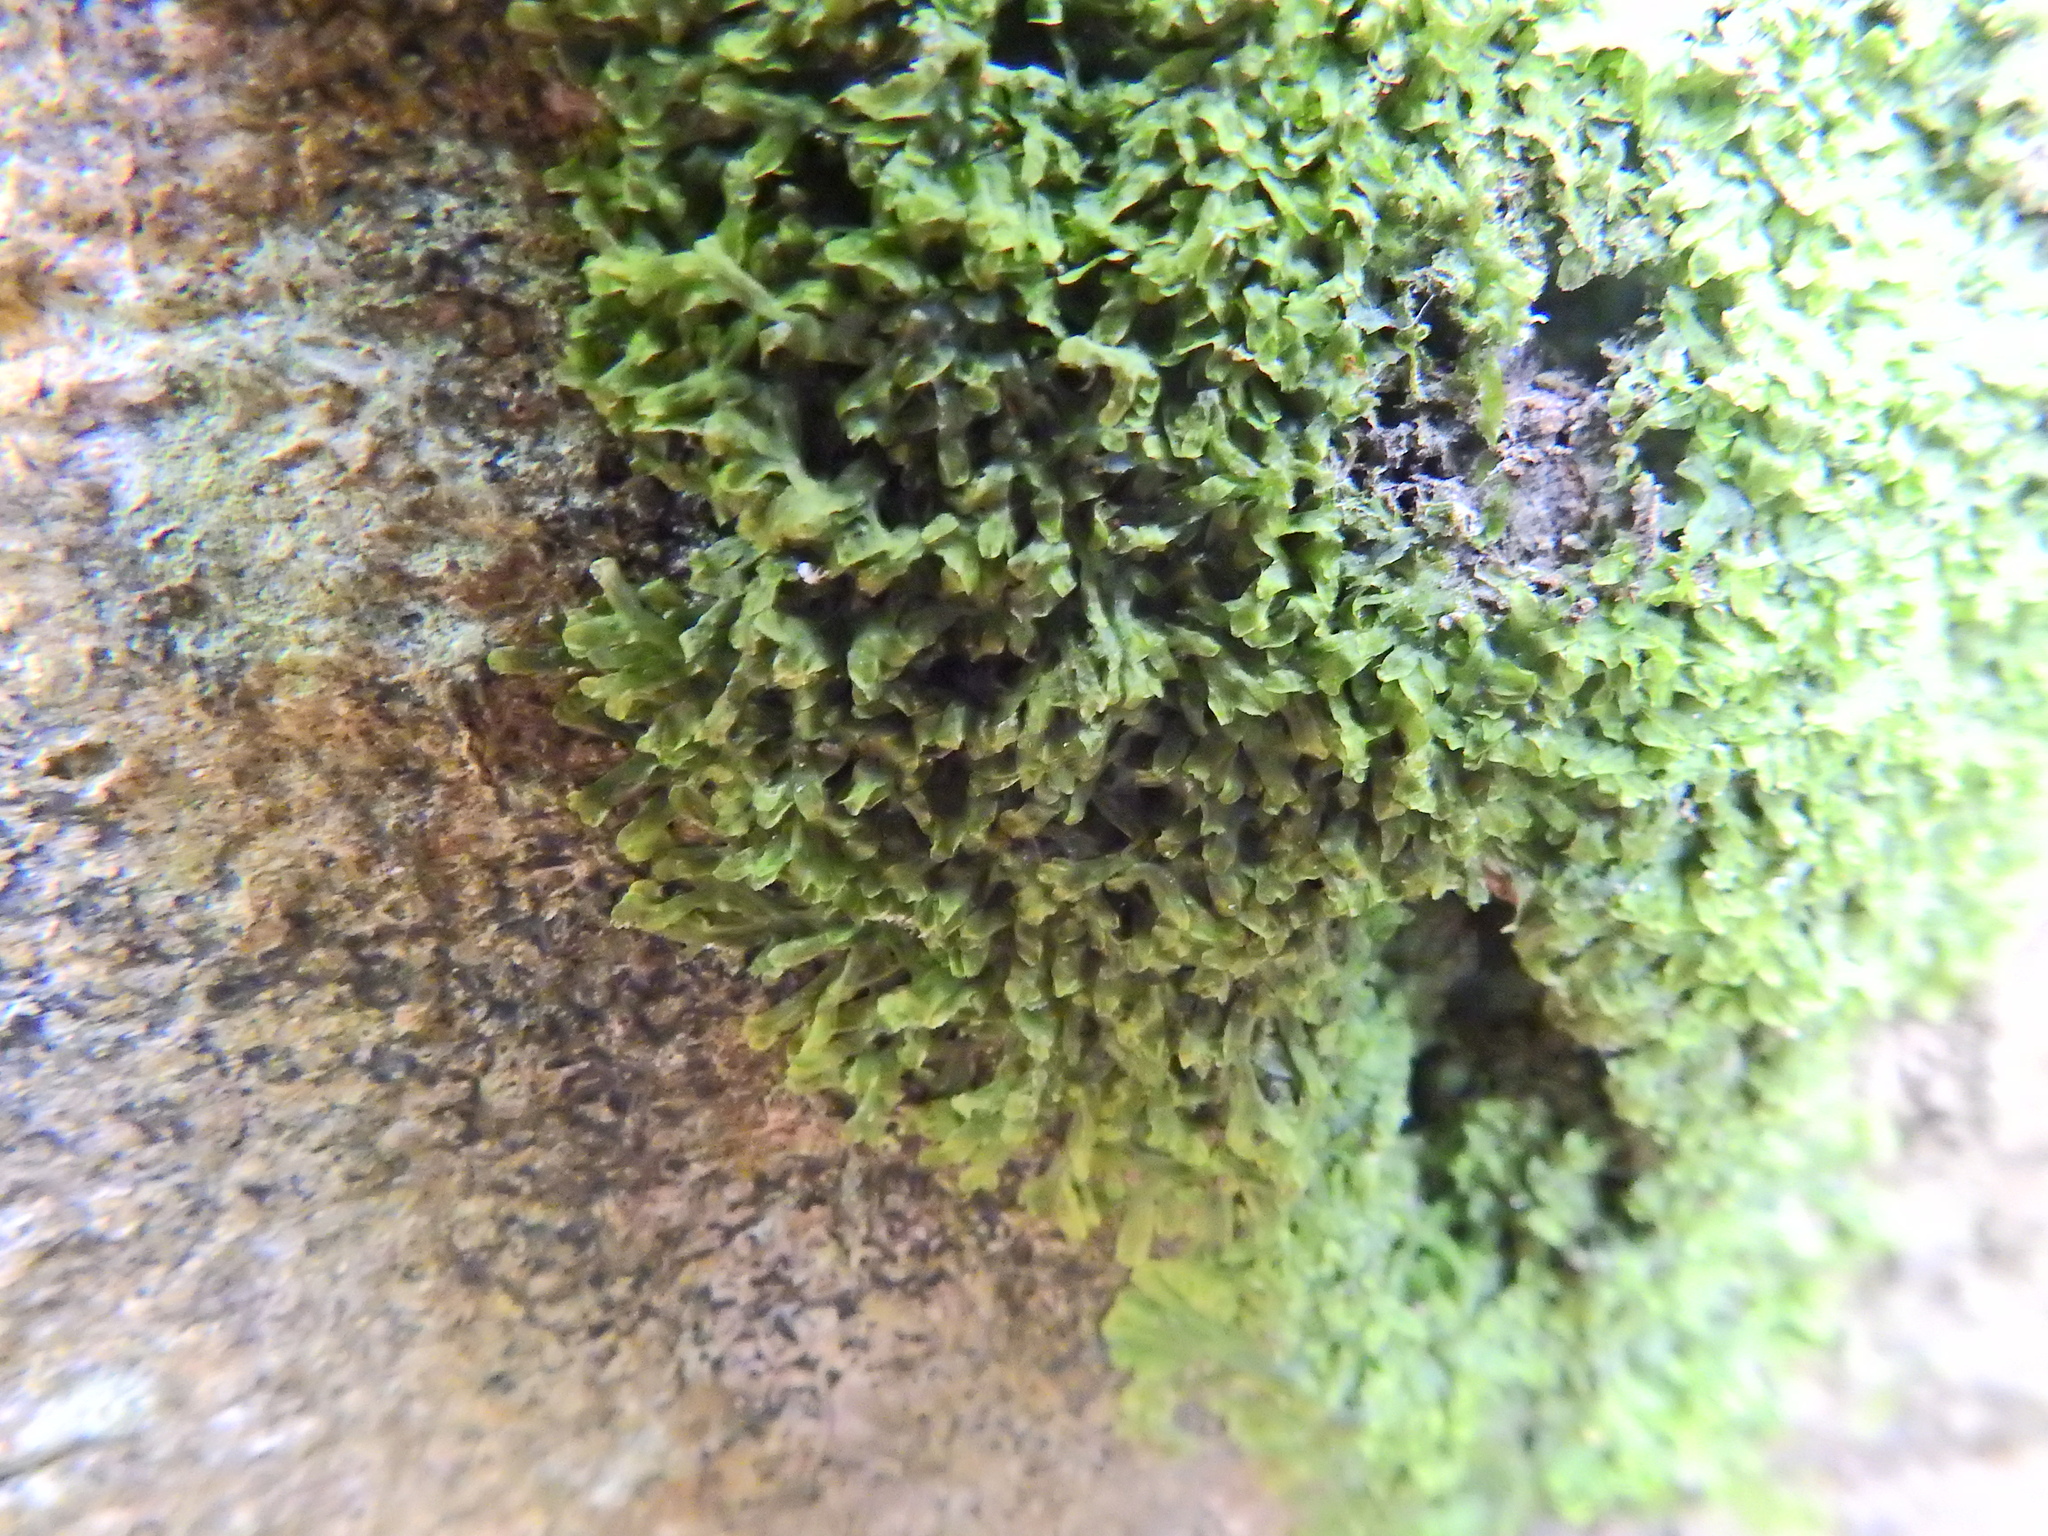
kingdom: Plantae
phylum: Marchantiophyta
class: Jungermanniopsida
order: Metzgeriales
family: Metzgeriaceae
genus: Metzgeria
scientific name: Metzgeria furcata
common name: Forked veilwort
